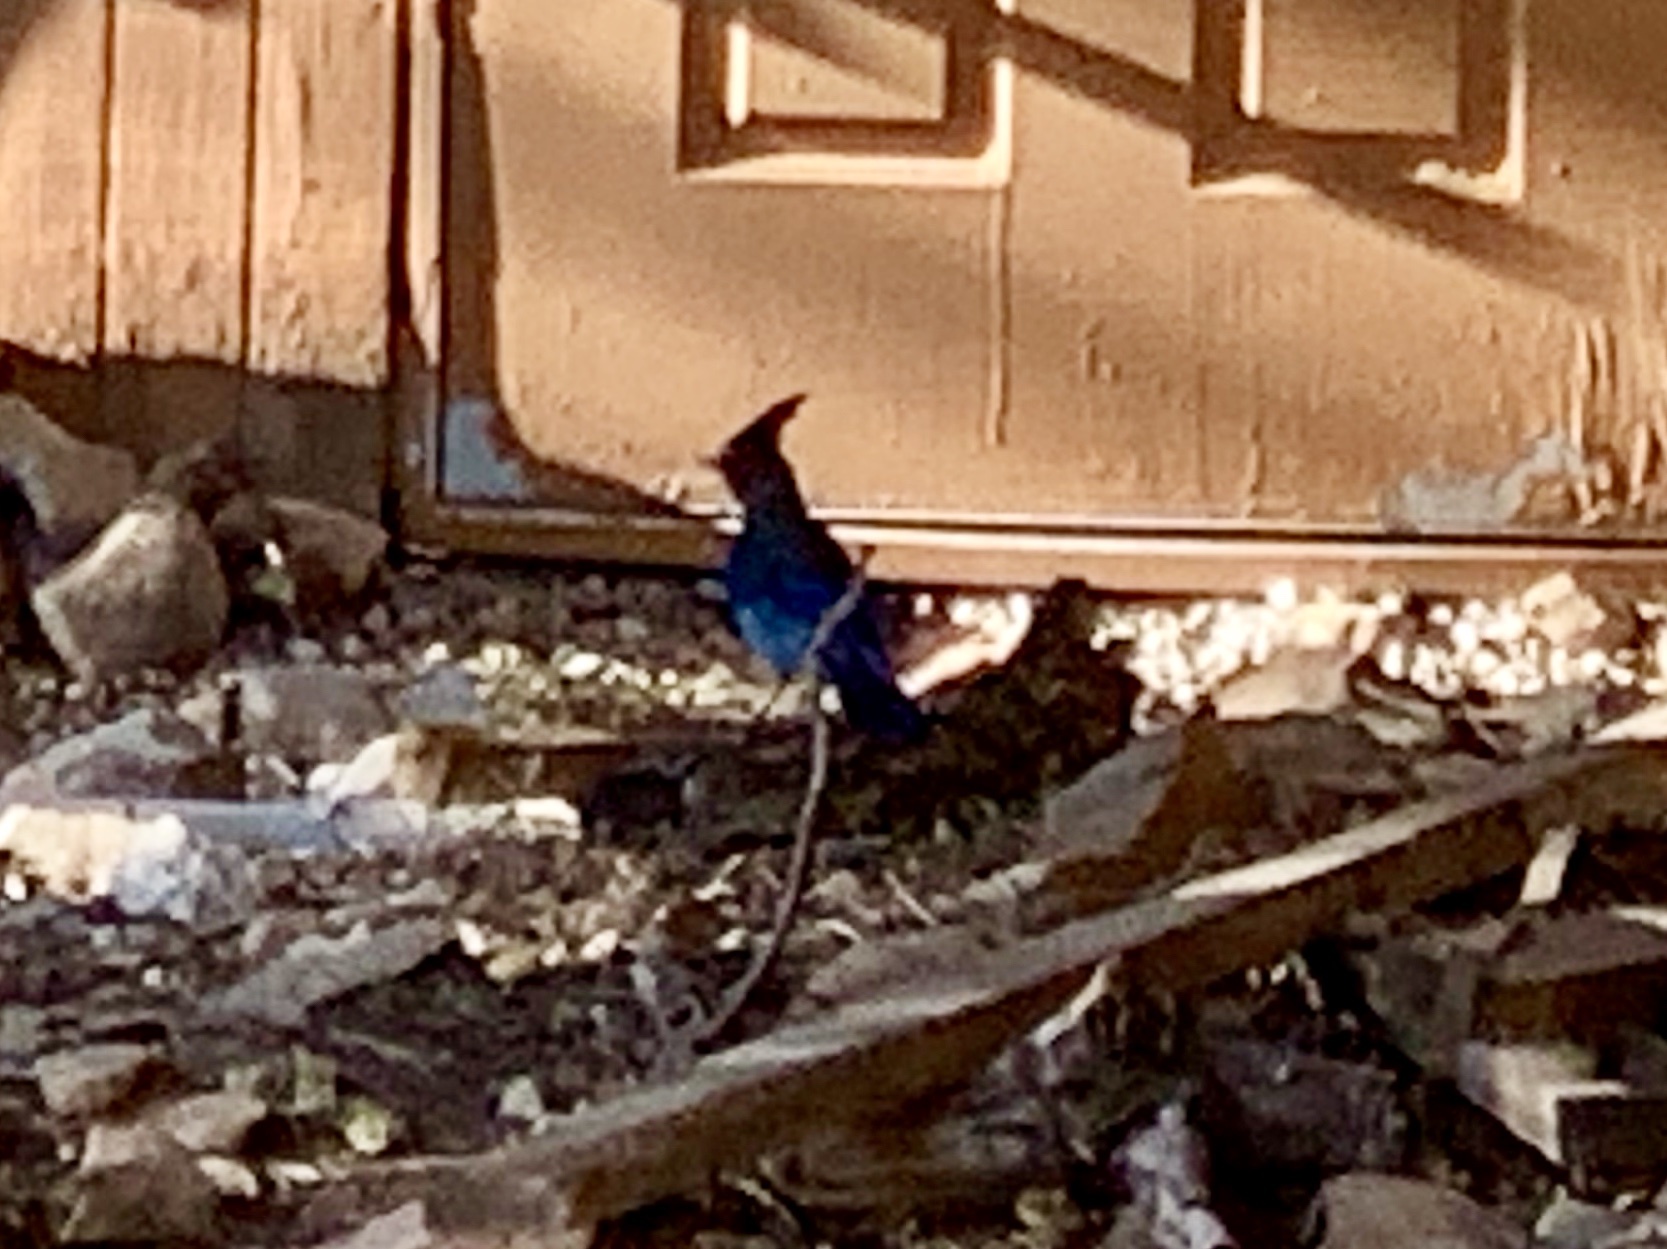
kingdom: Animalia
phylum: Chordata
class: Aves
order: Passeriformes
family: Corvidae
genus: Cyanocitta
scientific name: Cyanocitta stelleri
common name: Steller's jay
